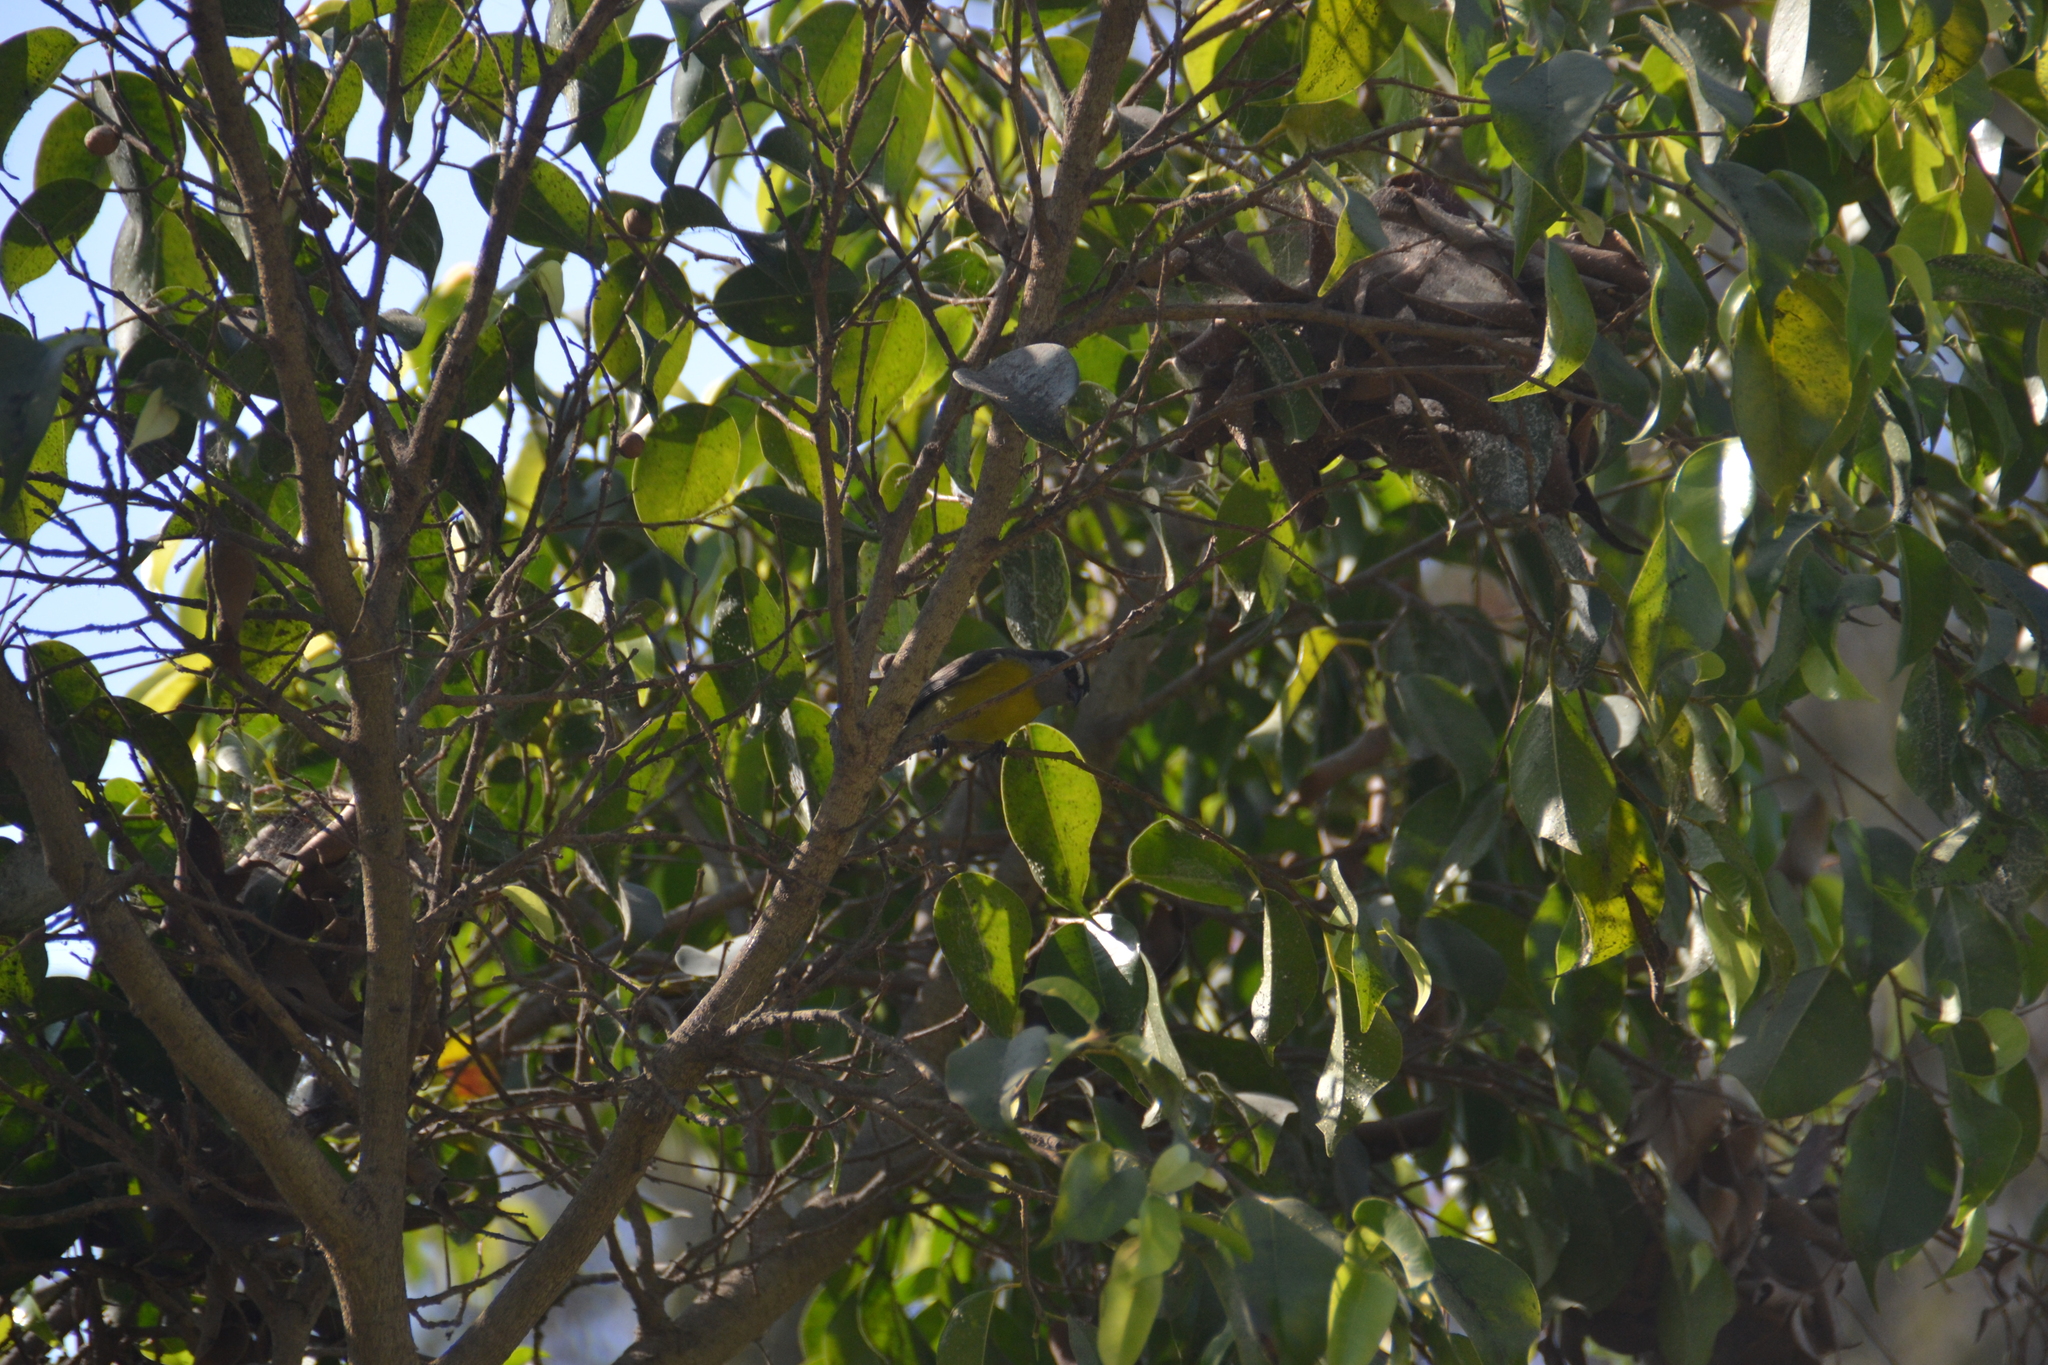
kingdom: Animalia
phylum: Chordata
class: Aves
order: Passeriformes
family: Thraupidae
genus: Coereba
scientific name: Coereba flaveola
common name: Bananaquit
